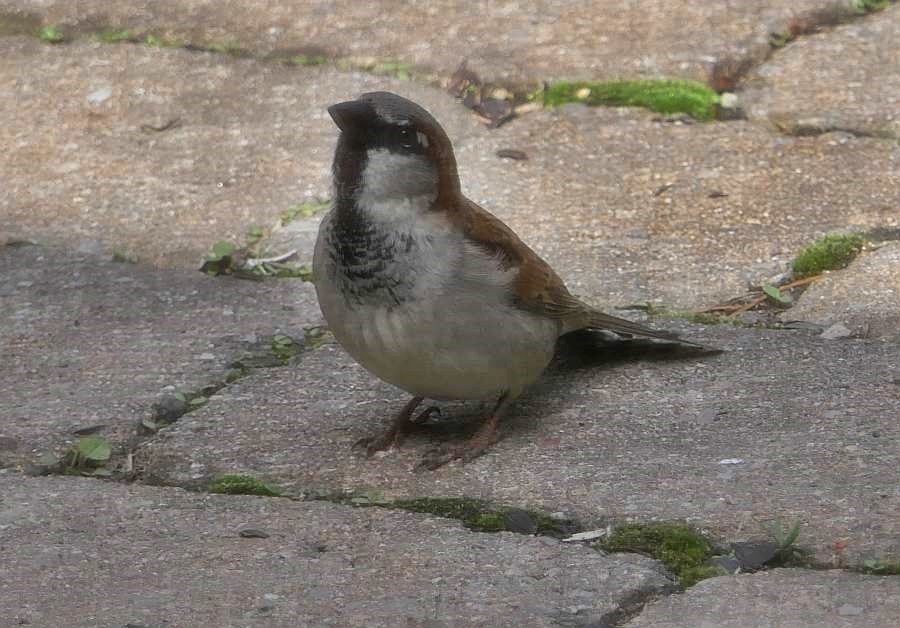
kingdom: Animalia
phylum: Chordata
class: Aves
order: Passeriformes
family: Passeridae
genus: Passer
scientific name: Passer domesticus
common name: House sparrow
